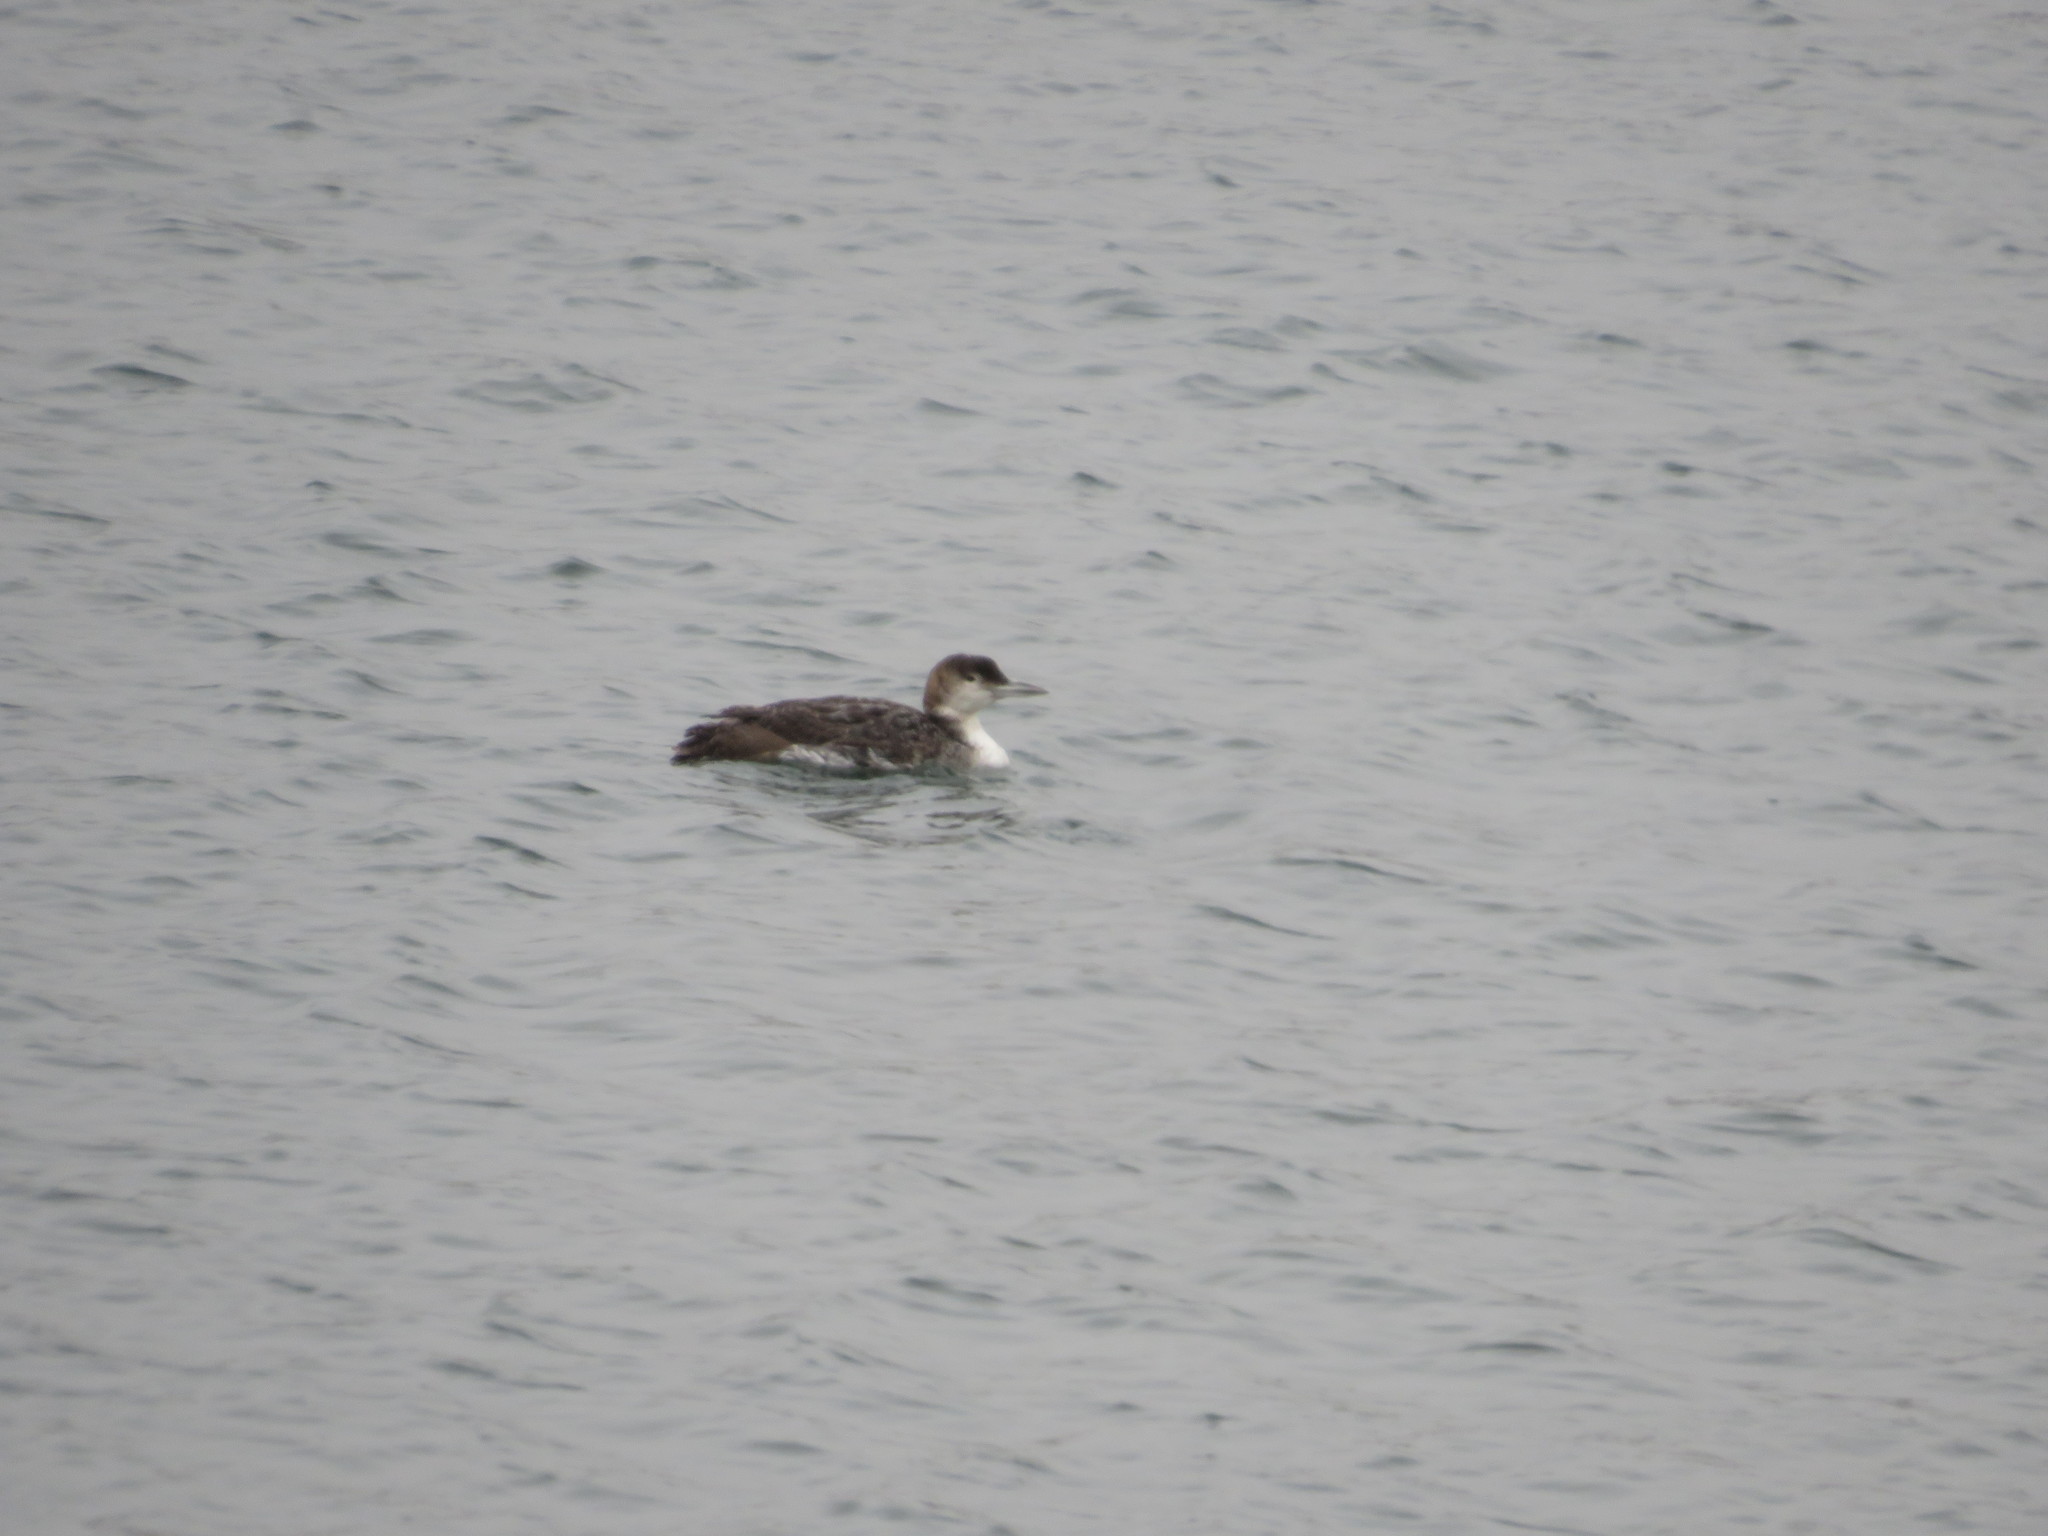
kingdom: Animalia
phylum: Chordata
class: Aves
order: Gaviiformes
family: Gaviidae
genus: Gavia
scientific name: Gavia immer
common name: Common loon
